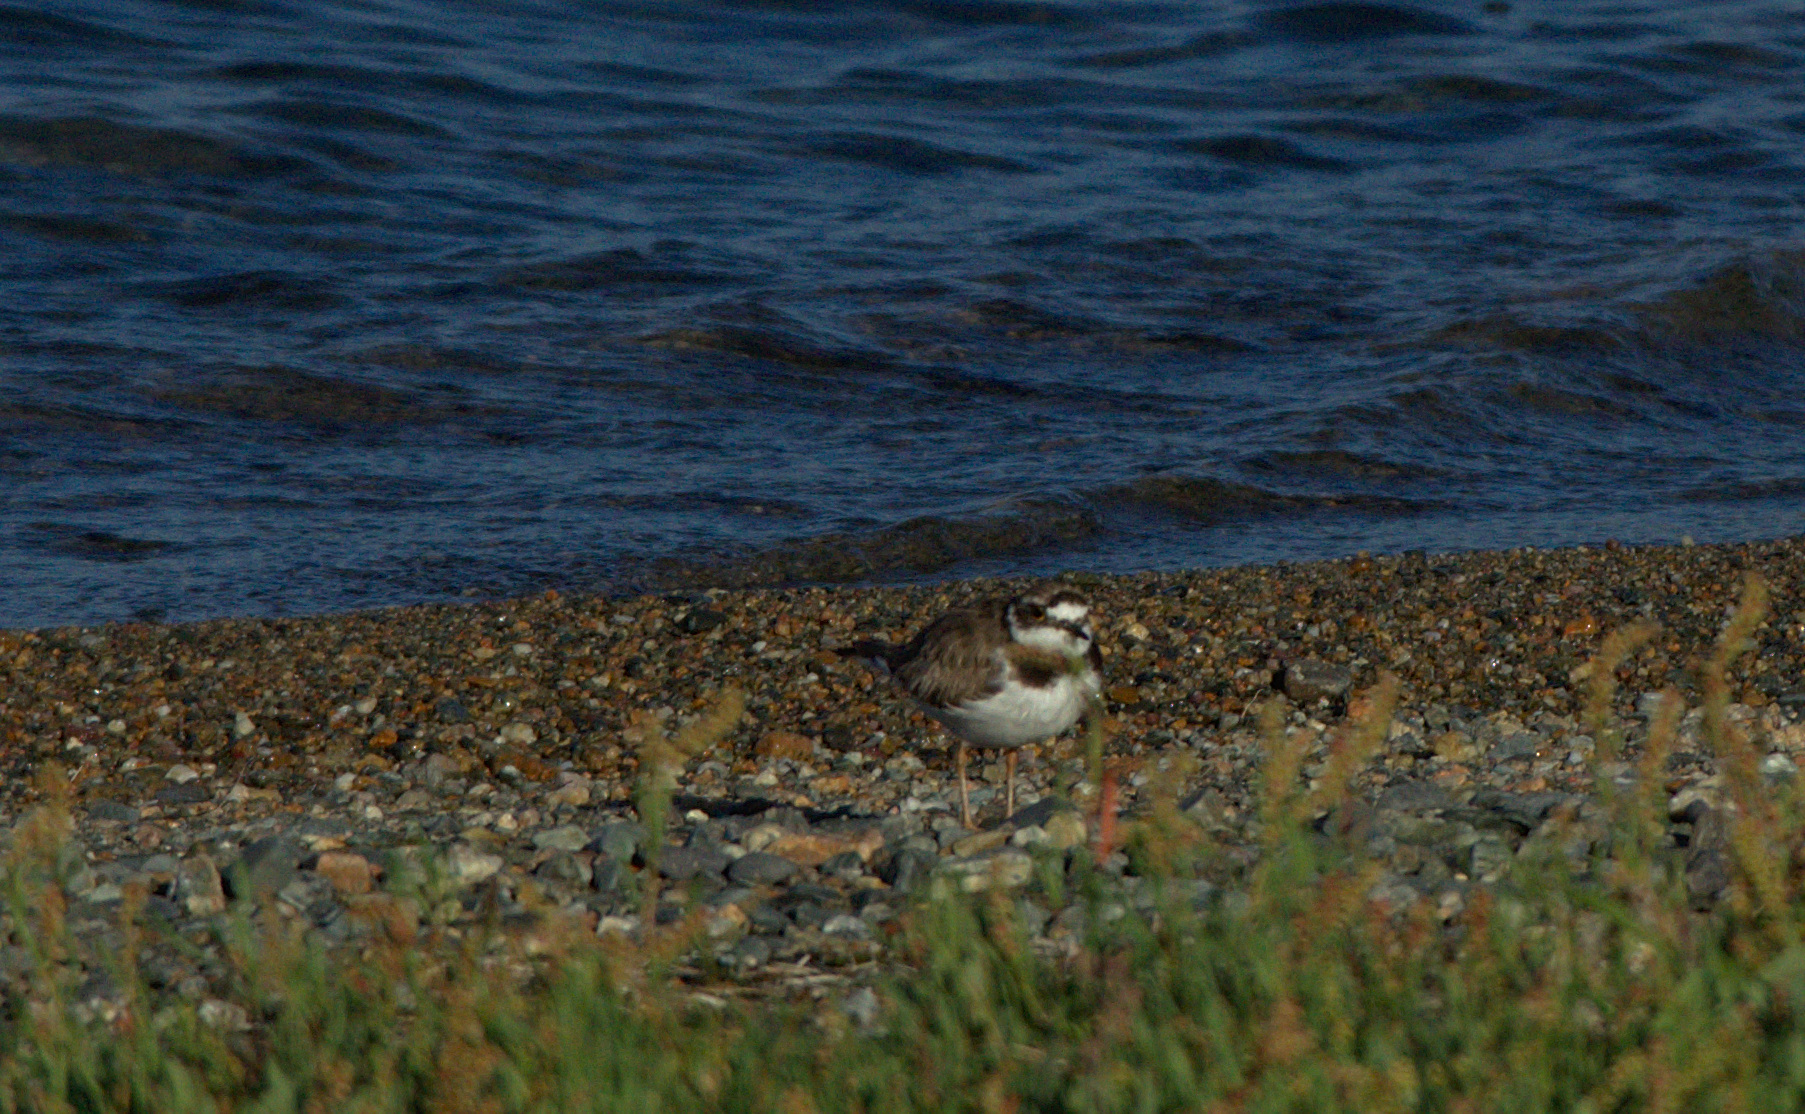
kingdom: Animalia
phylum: Chordata
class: Aves
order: Charadriiformes
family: Charadriidae
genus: Charadrius
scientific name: Charadrius dubius
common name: Little ringed plover
